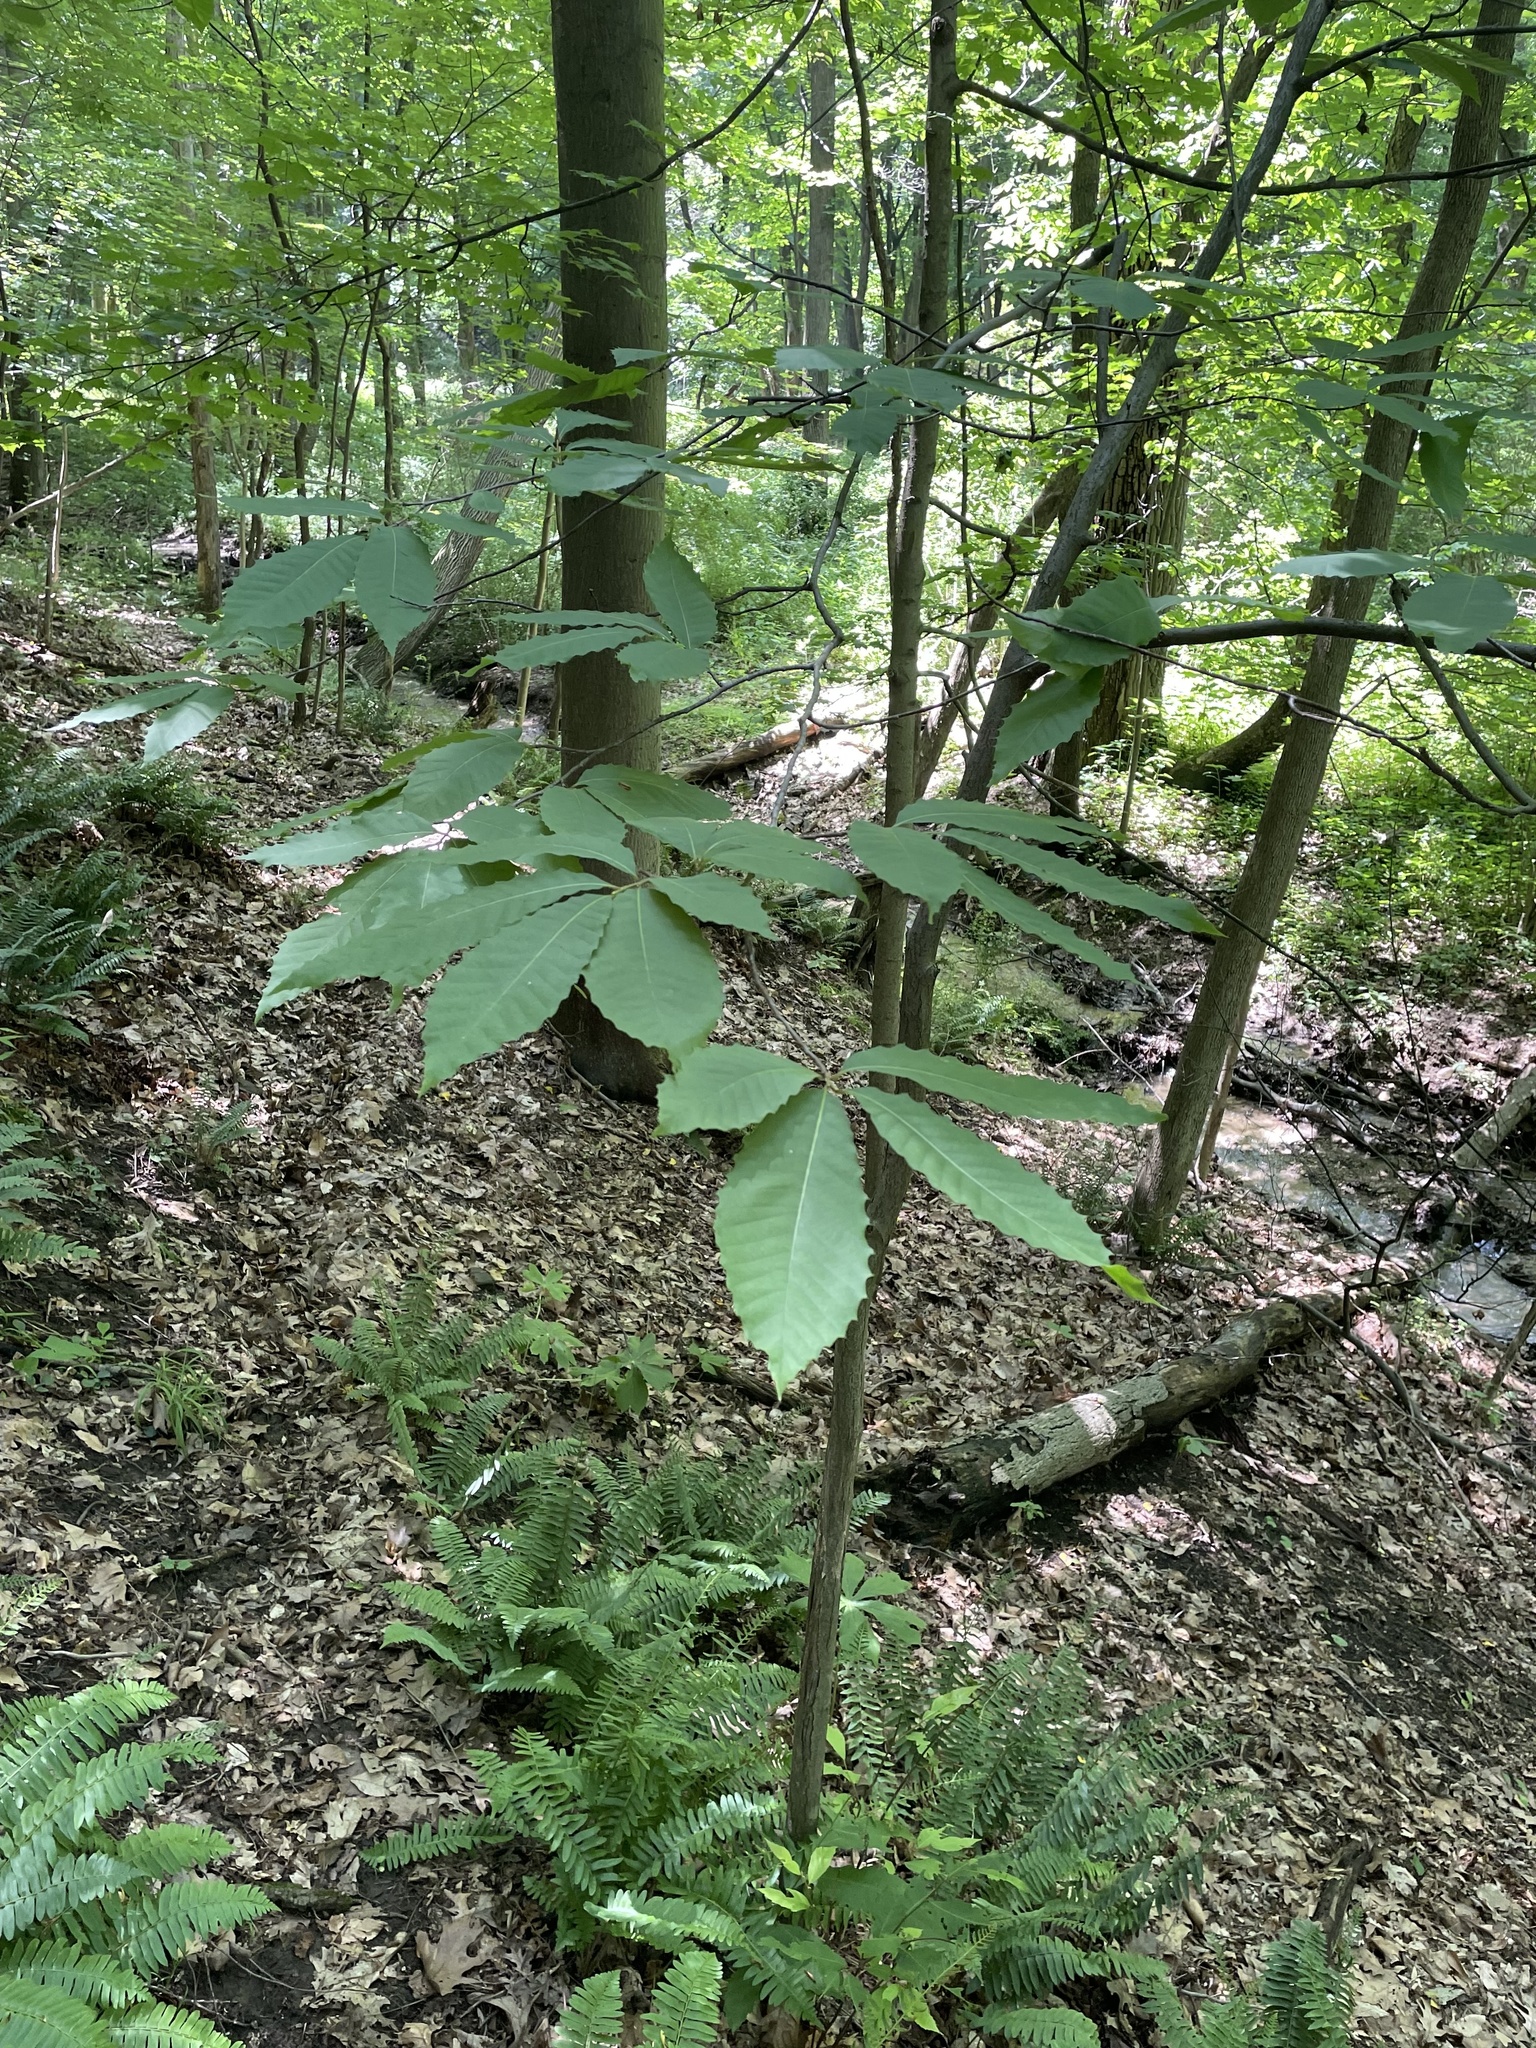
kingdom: Plantae
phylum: Tracheophyta
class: Magnoliopsida
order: Fagales
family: Fagaceae
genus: Castanea
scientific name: Castanea dentata
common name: American chestnut
